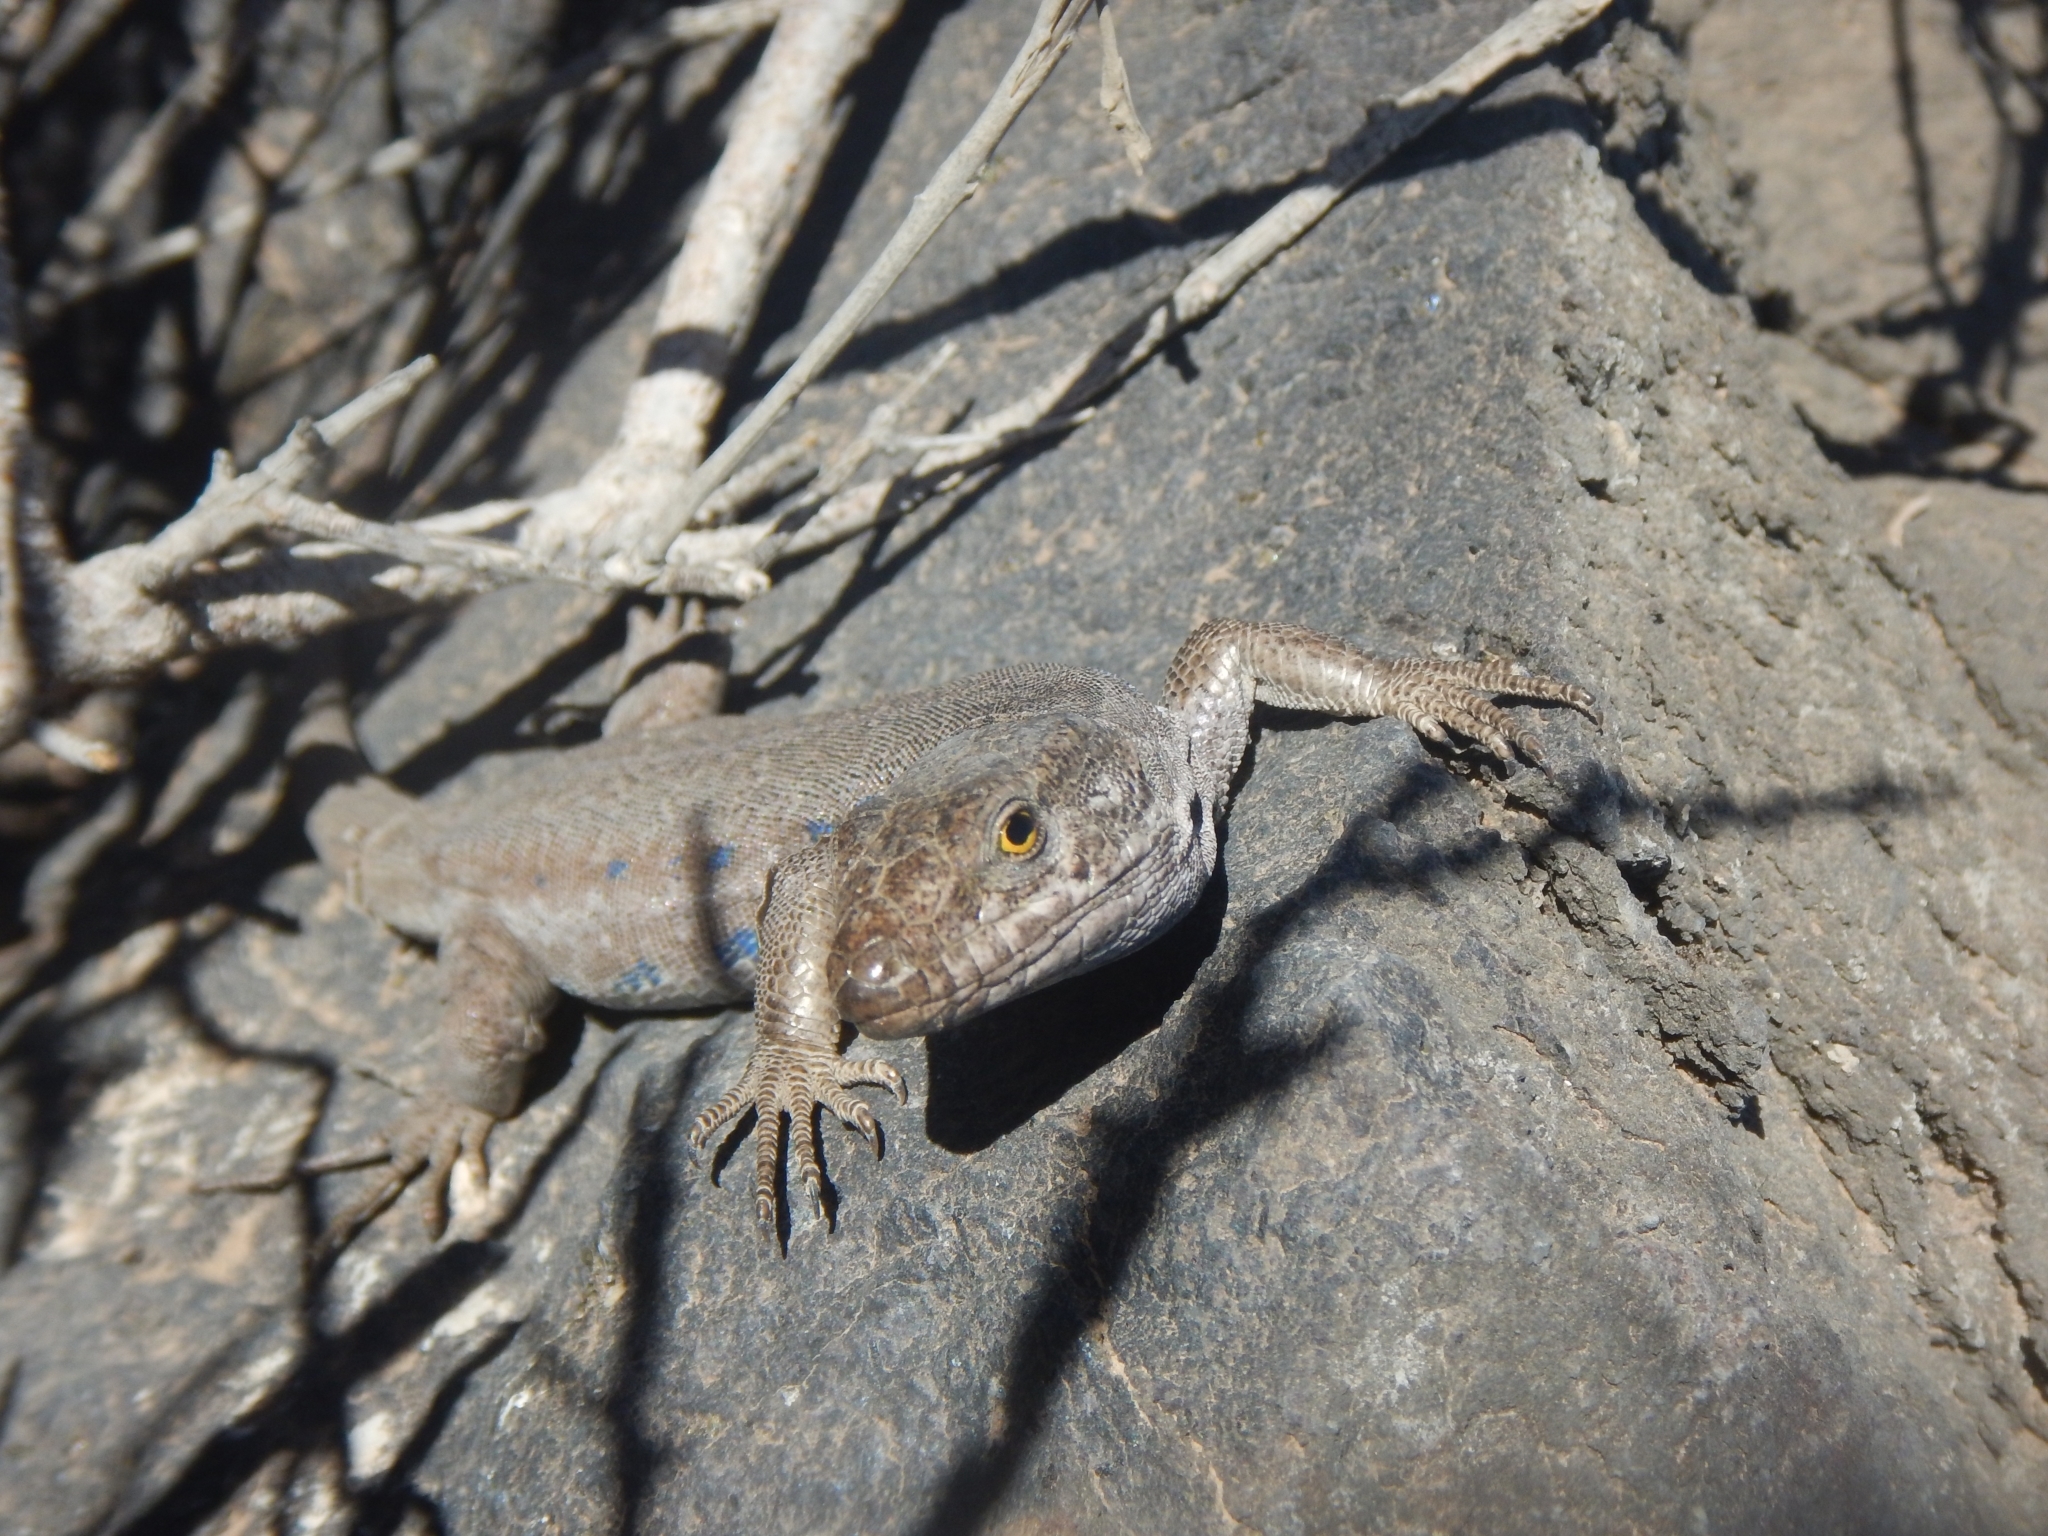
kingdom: Animalia
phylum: Chordata
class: Squamata
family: Lacertidae
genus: Gallotia
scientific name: Gallotia galloti
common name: Gallot's lizard
